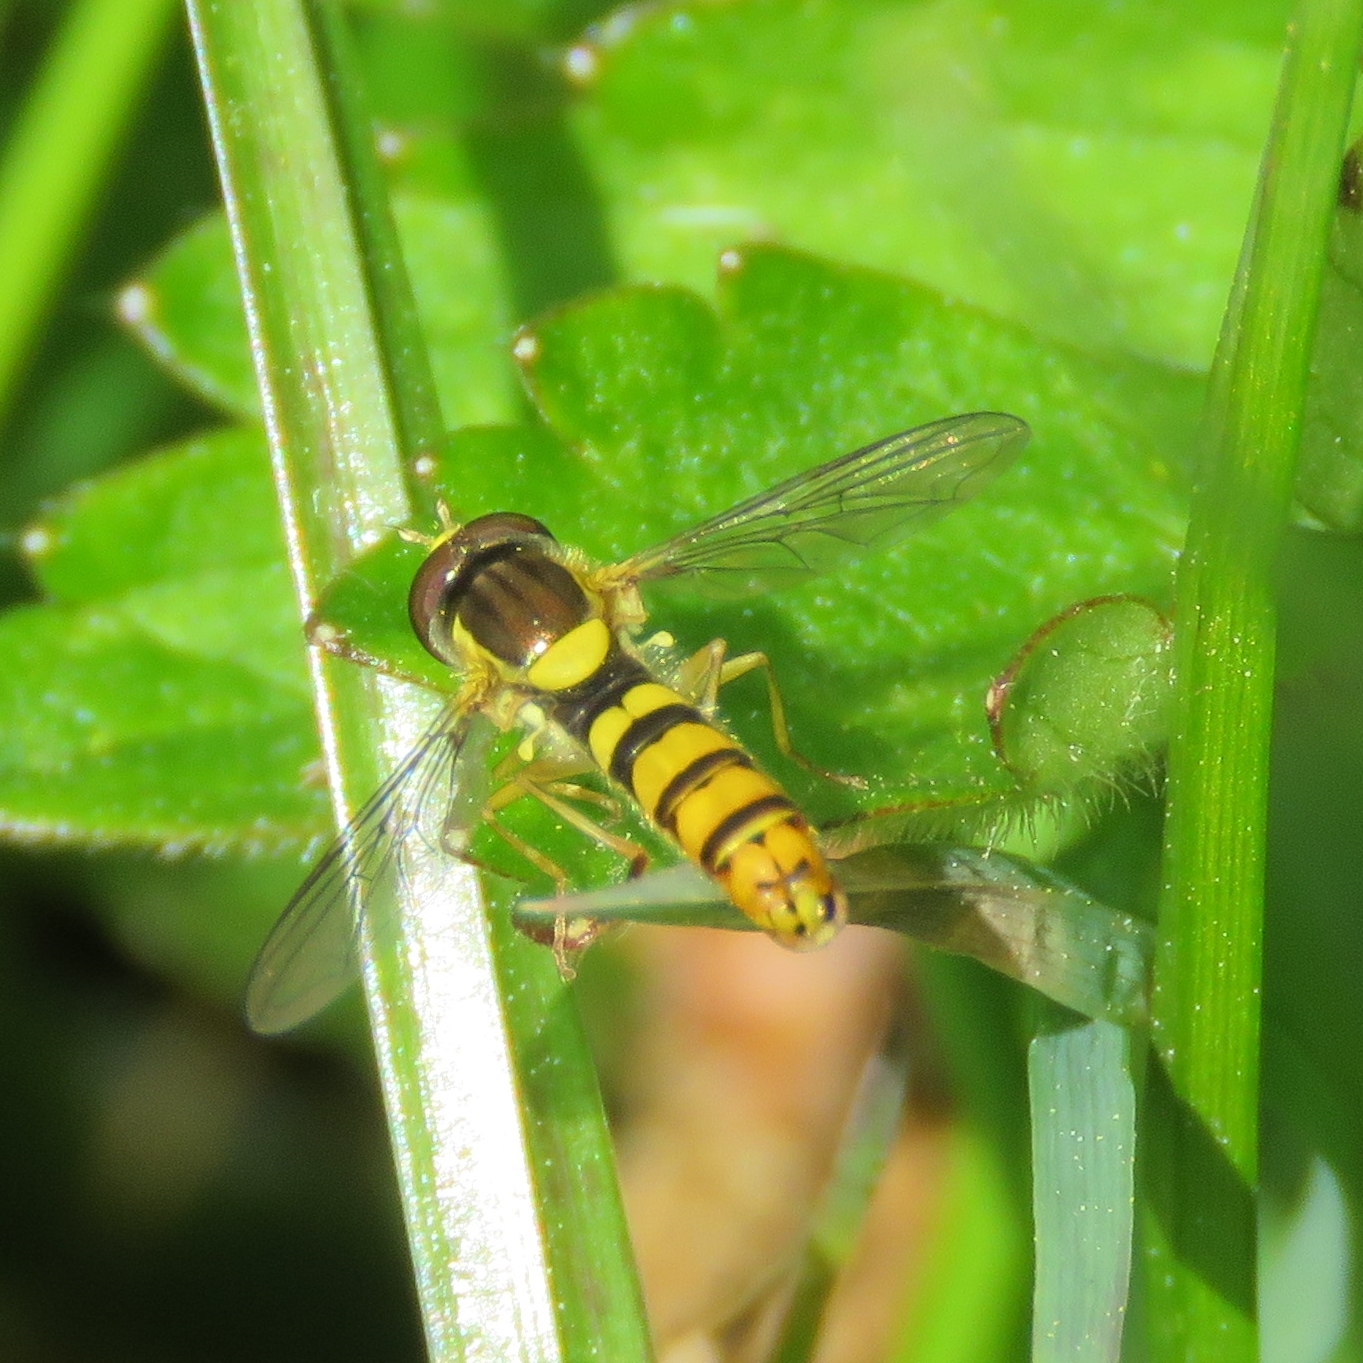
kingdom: Animalia
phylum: Arthropoda
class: Insecta
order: Diptera
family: Syrphidae
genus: Sphaerophoria
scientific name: Sphaerophoria
